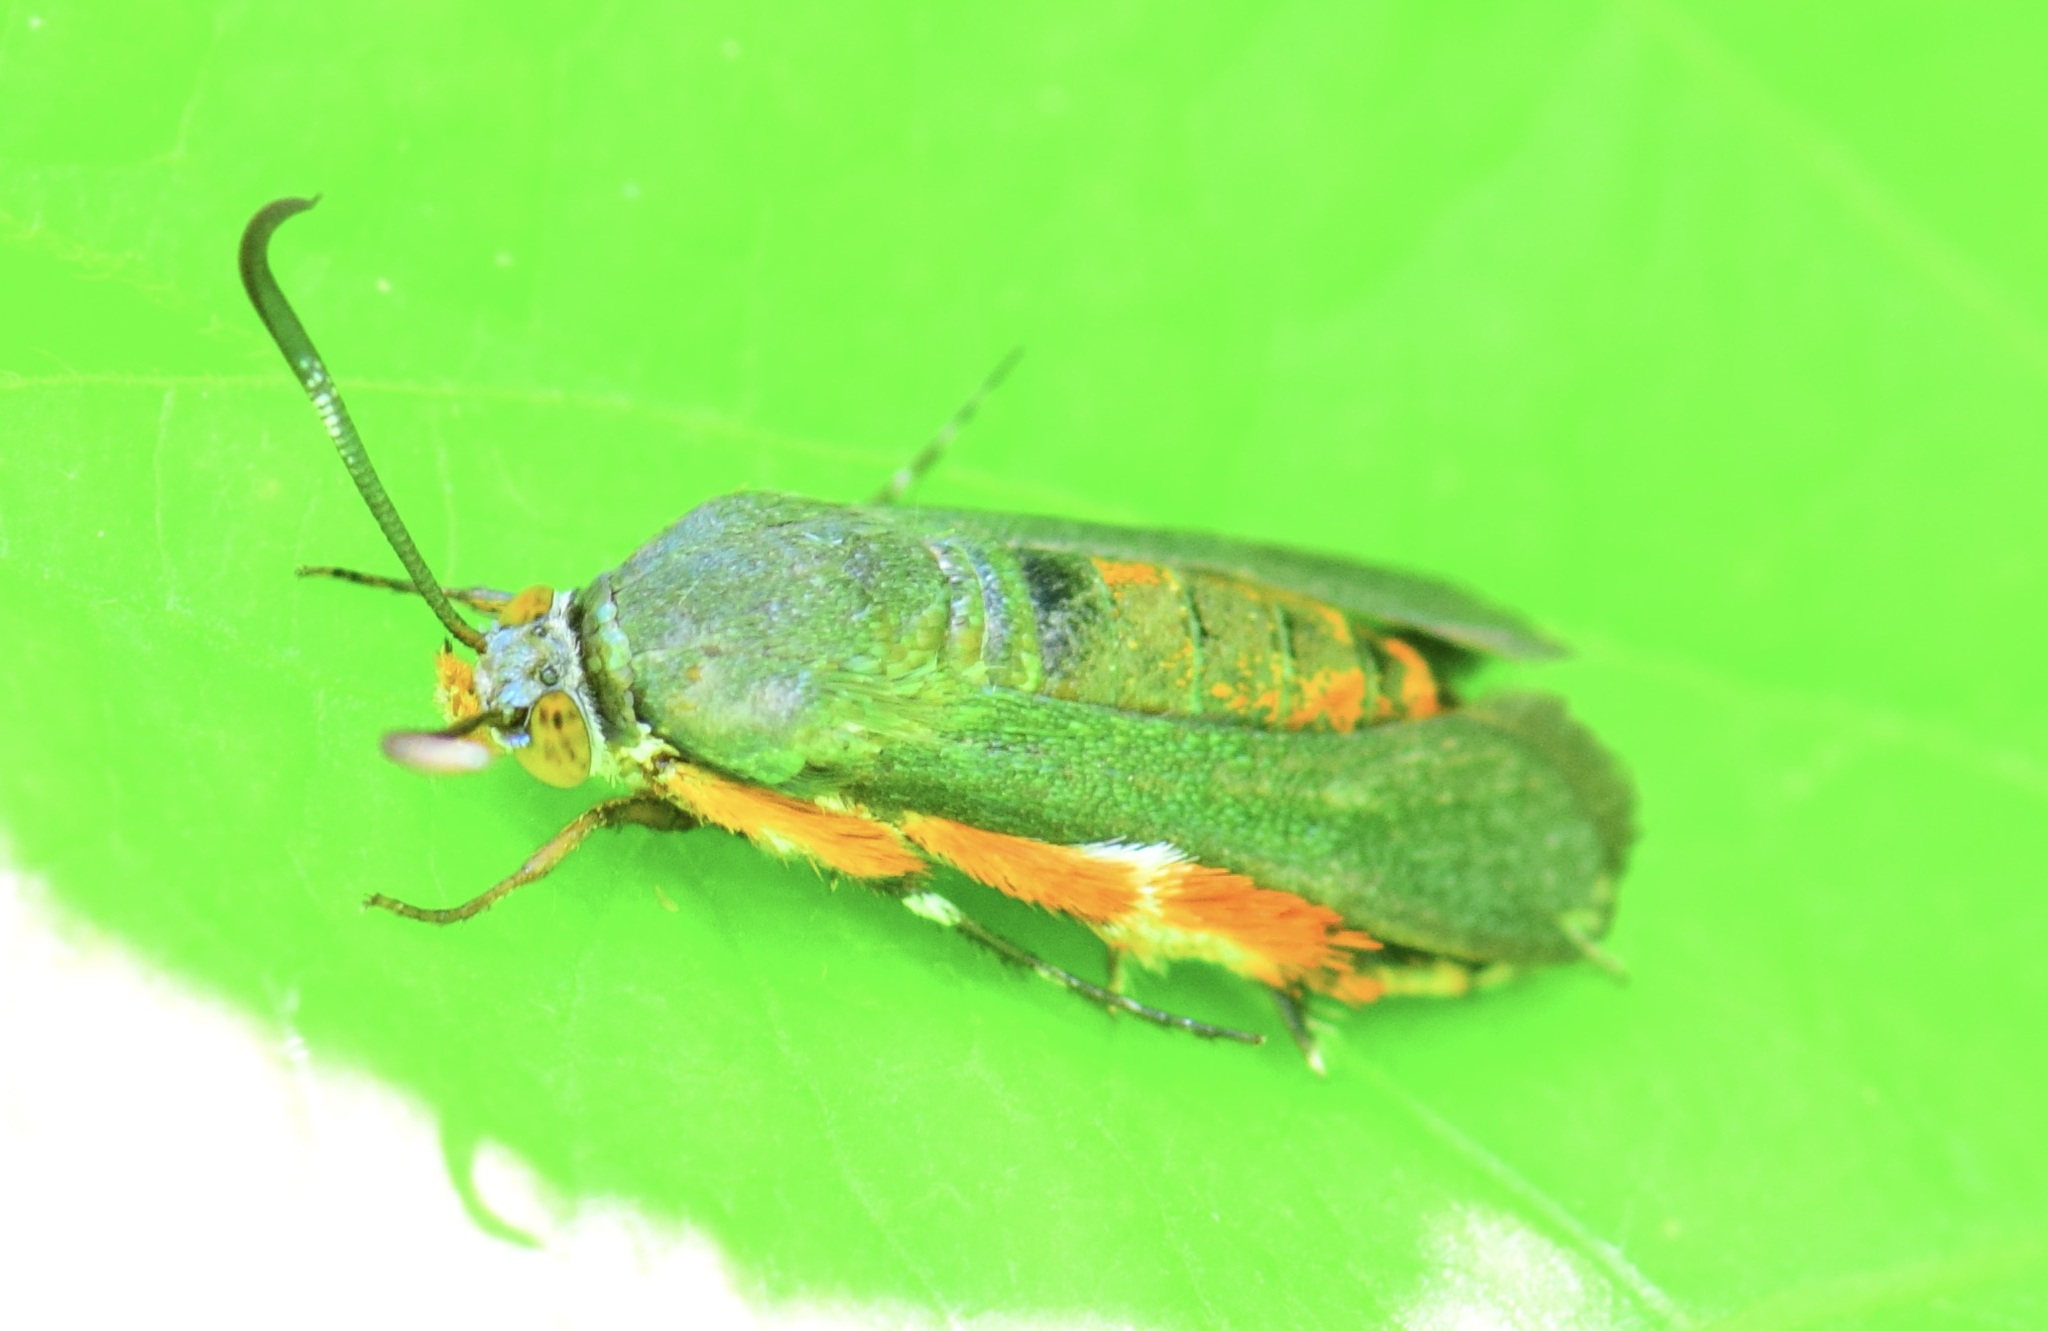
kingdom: Animalia
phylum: Arthropoda
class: Insecta
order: Lepidoptera
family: Sesiidae
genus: Eichlinia
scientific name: Eichlinia cucurbitae
